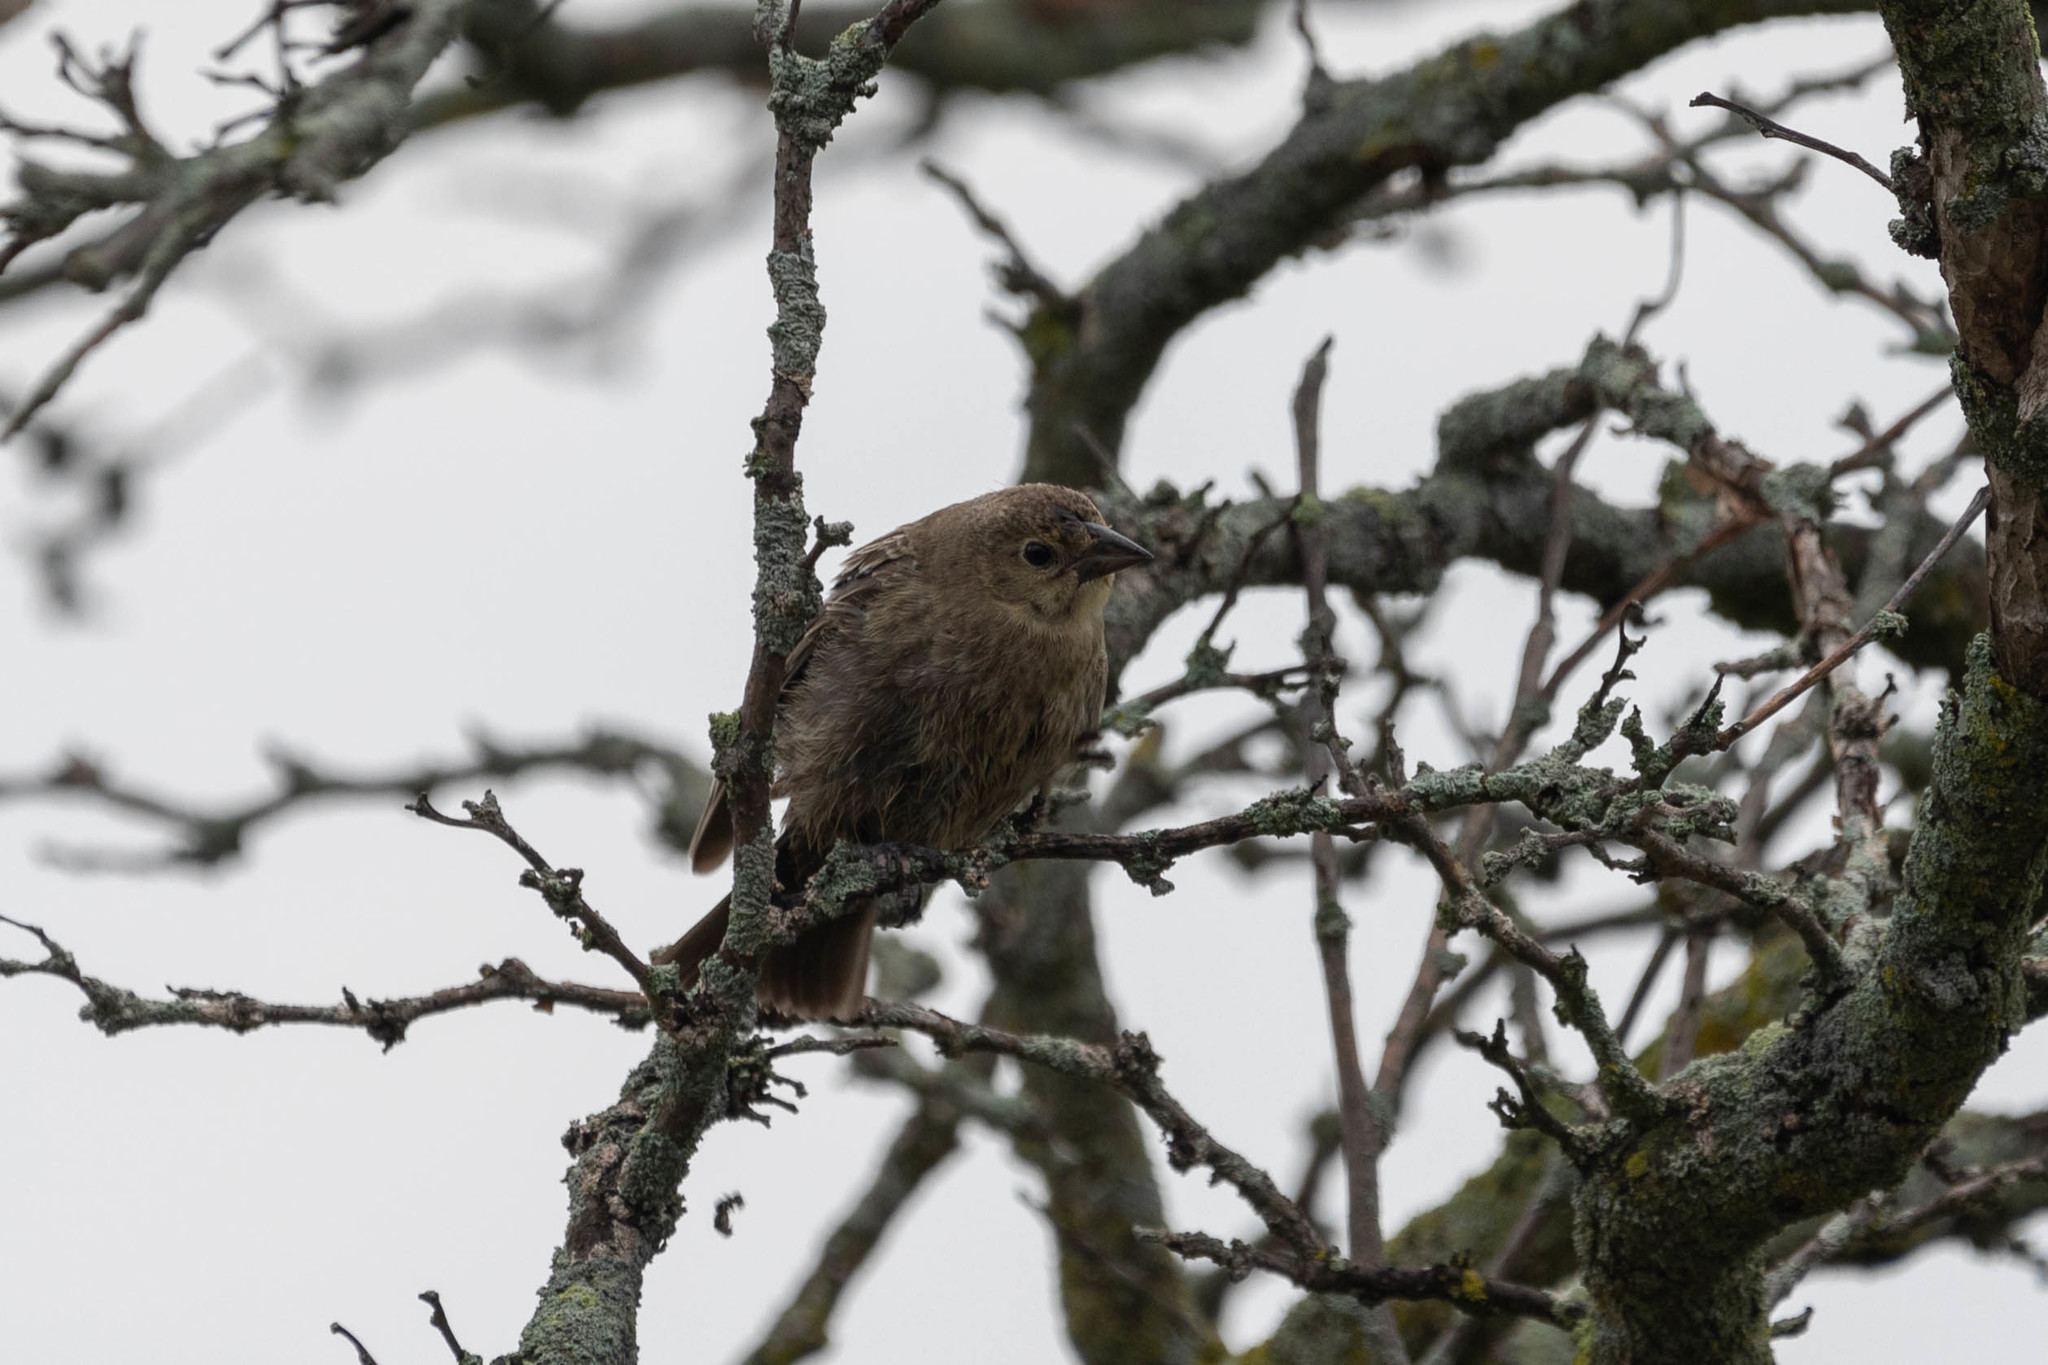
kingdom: Animalia
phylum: Chordata
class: Aves
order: Passeriformes
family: Icteridae
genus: Molothrus
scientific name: Molothrus ater
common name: Brown-headed cowbird
